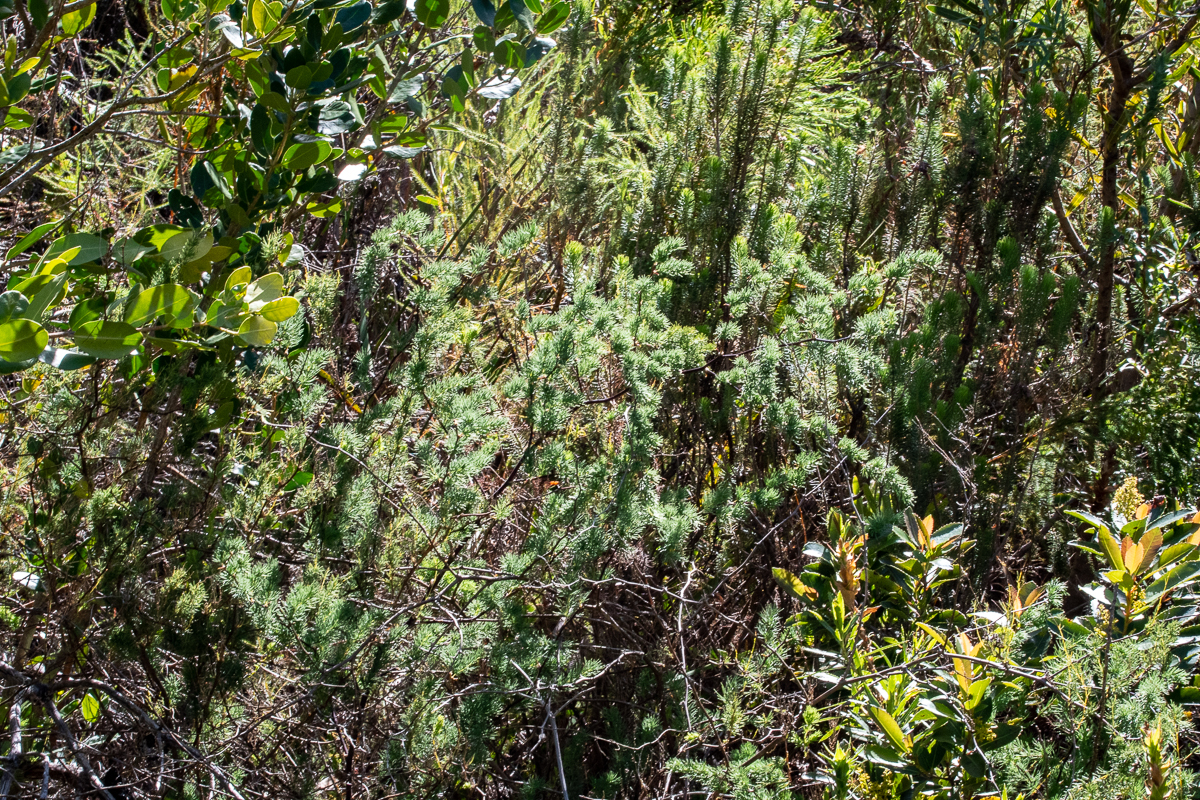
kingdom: Plantae
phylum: Tracheophyta
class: Liliopsida
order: Asparagales
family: Asparagaceae
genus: Asparagus
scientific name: Asparagus rubicundus
